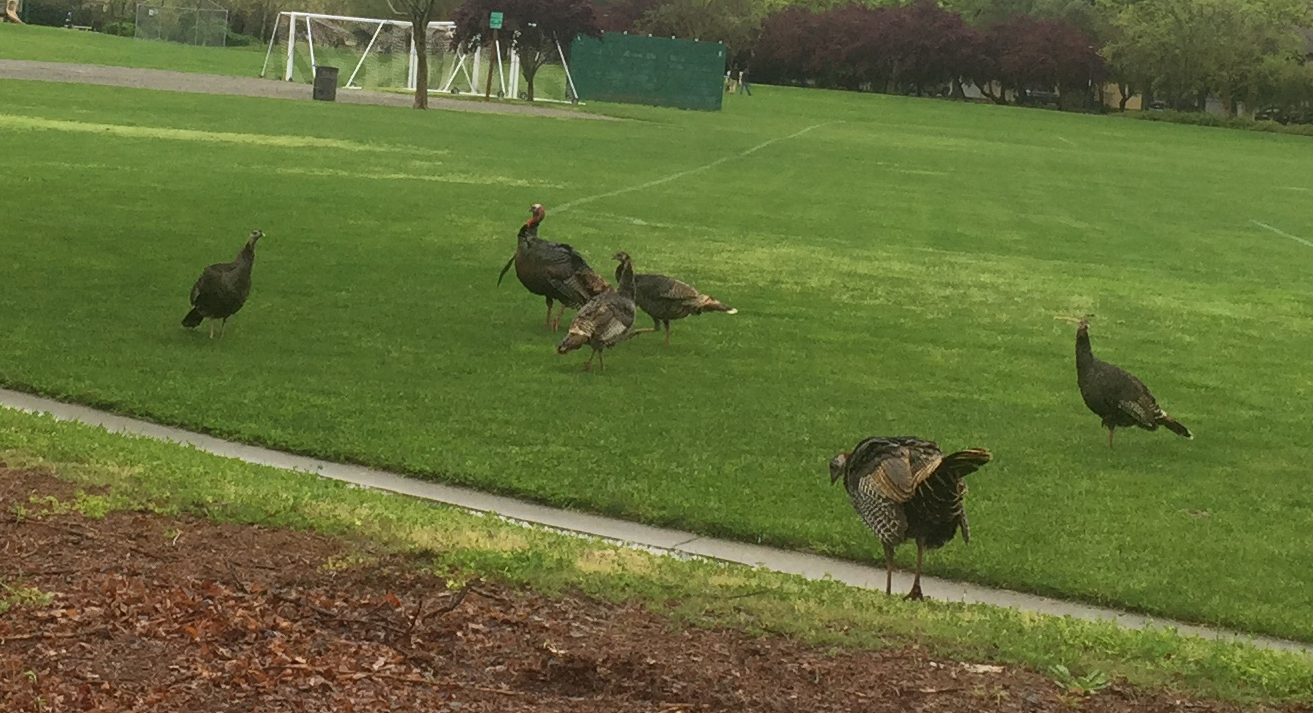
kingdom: Animalia
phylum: Chordata
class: Aves
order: Galliformes
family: Phasianidae
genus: Meleagris
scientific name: Meleagris gallopavo
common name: Wild turkey
